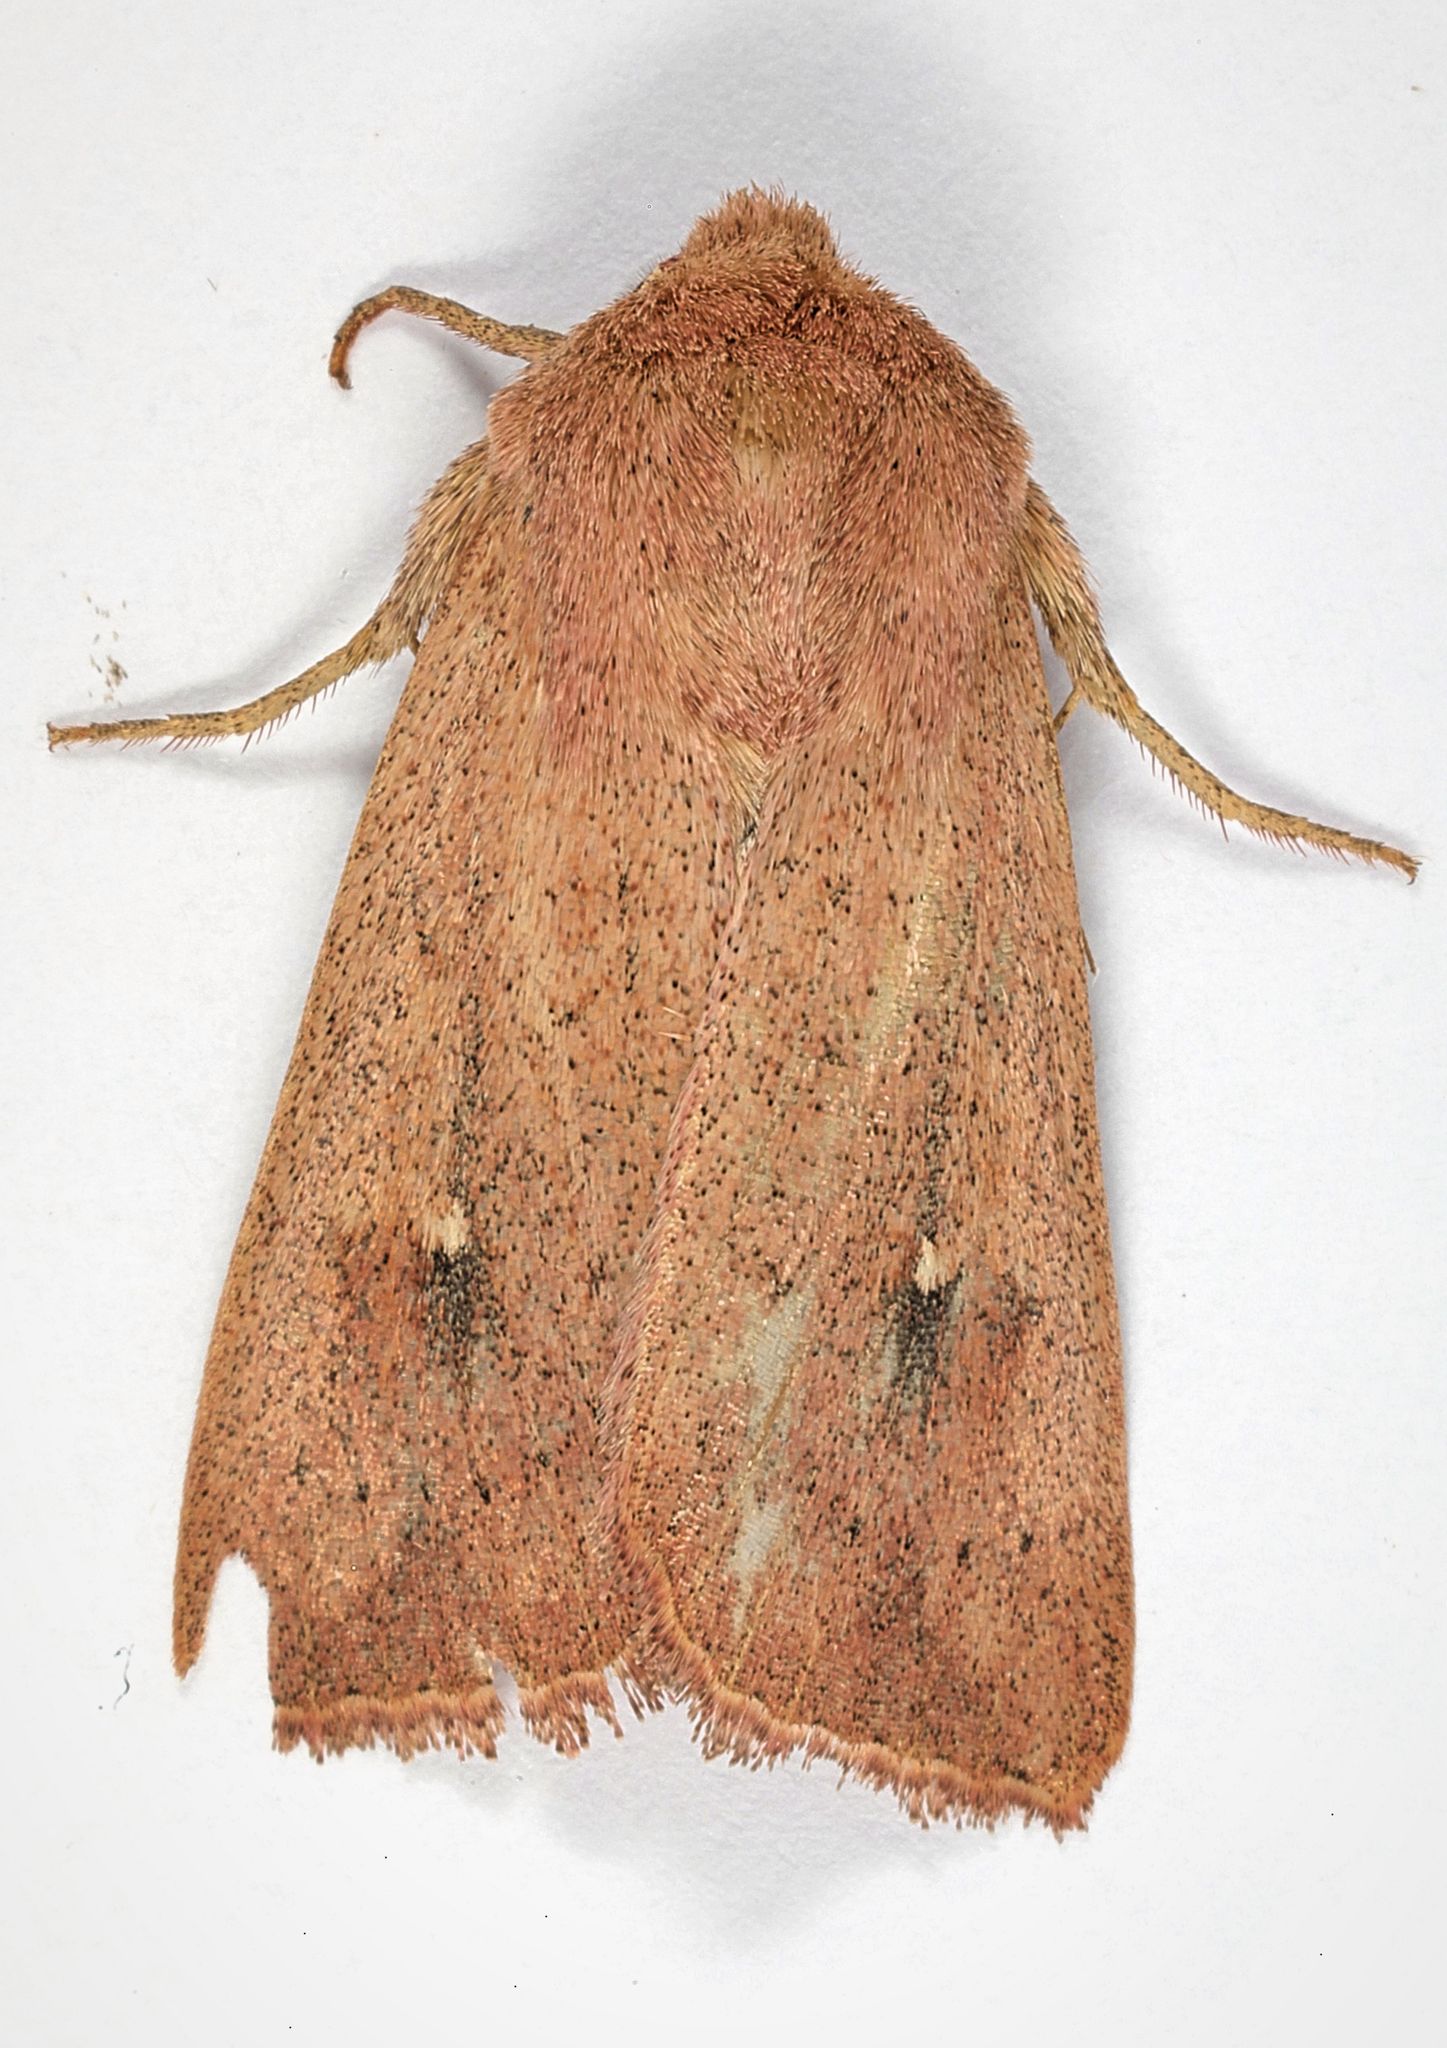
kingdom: Animalia
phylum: Arthropoda
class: Insecta
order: Lepidoptera
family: Noctuidae
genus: Mythimna
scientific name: Mythimna ferrago
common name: Clay
